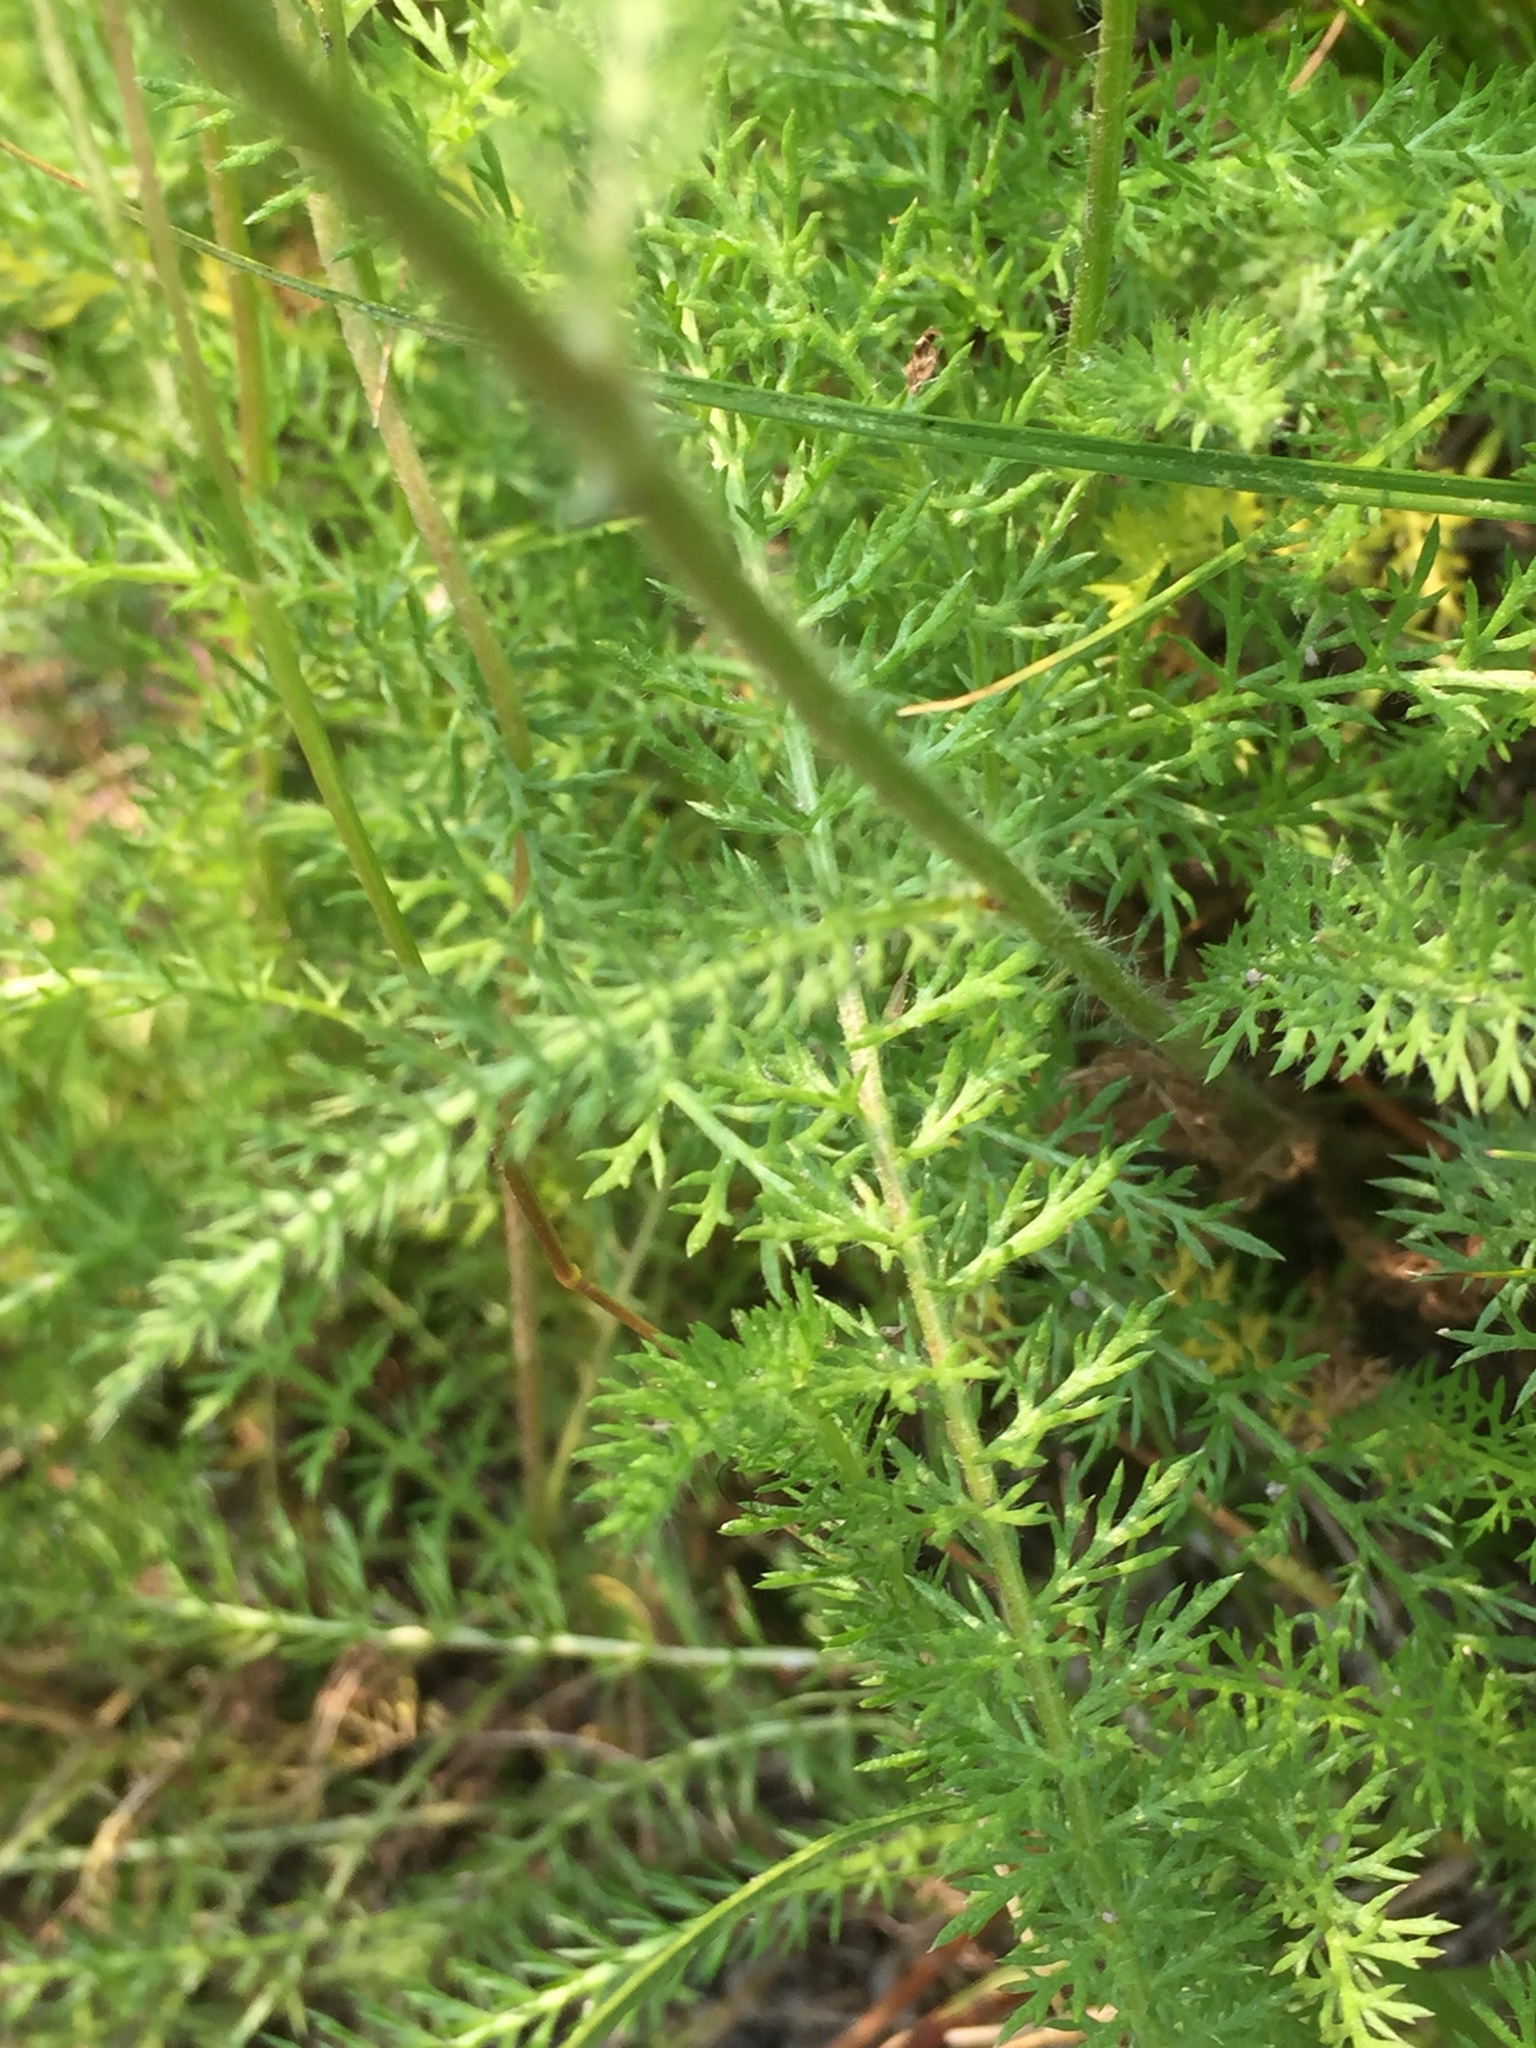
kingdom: Plantae
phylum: Tracheophyta
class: Magnoliopsida
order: Asterales
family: Asteraceae
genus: Achillea
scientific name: Achillea millefolium
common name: Yarrow
